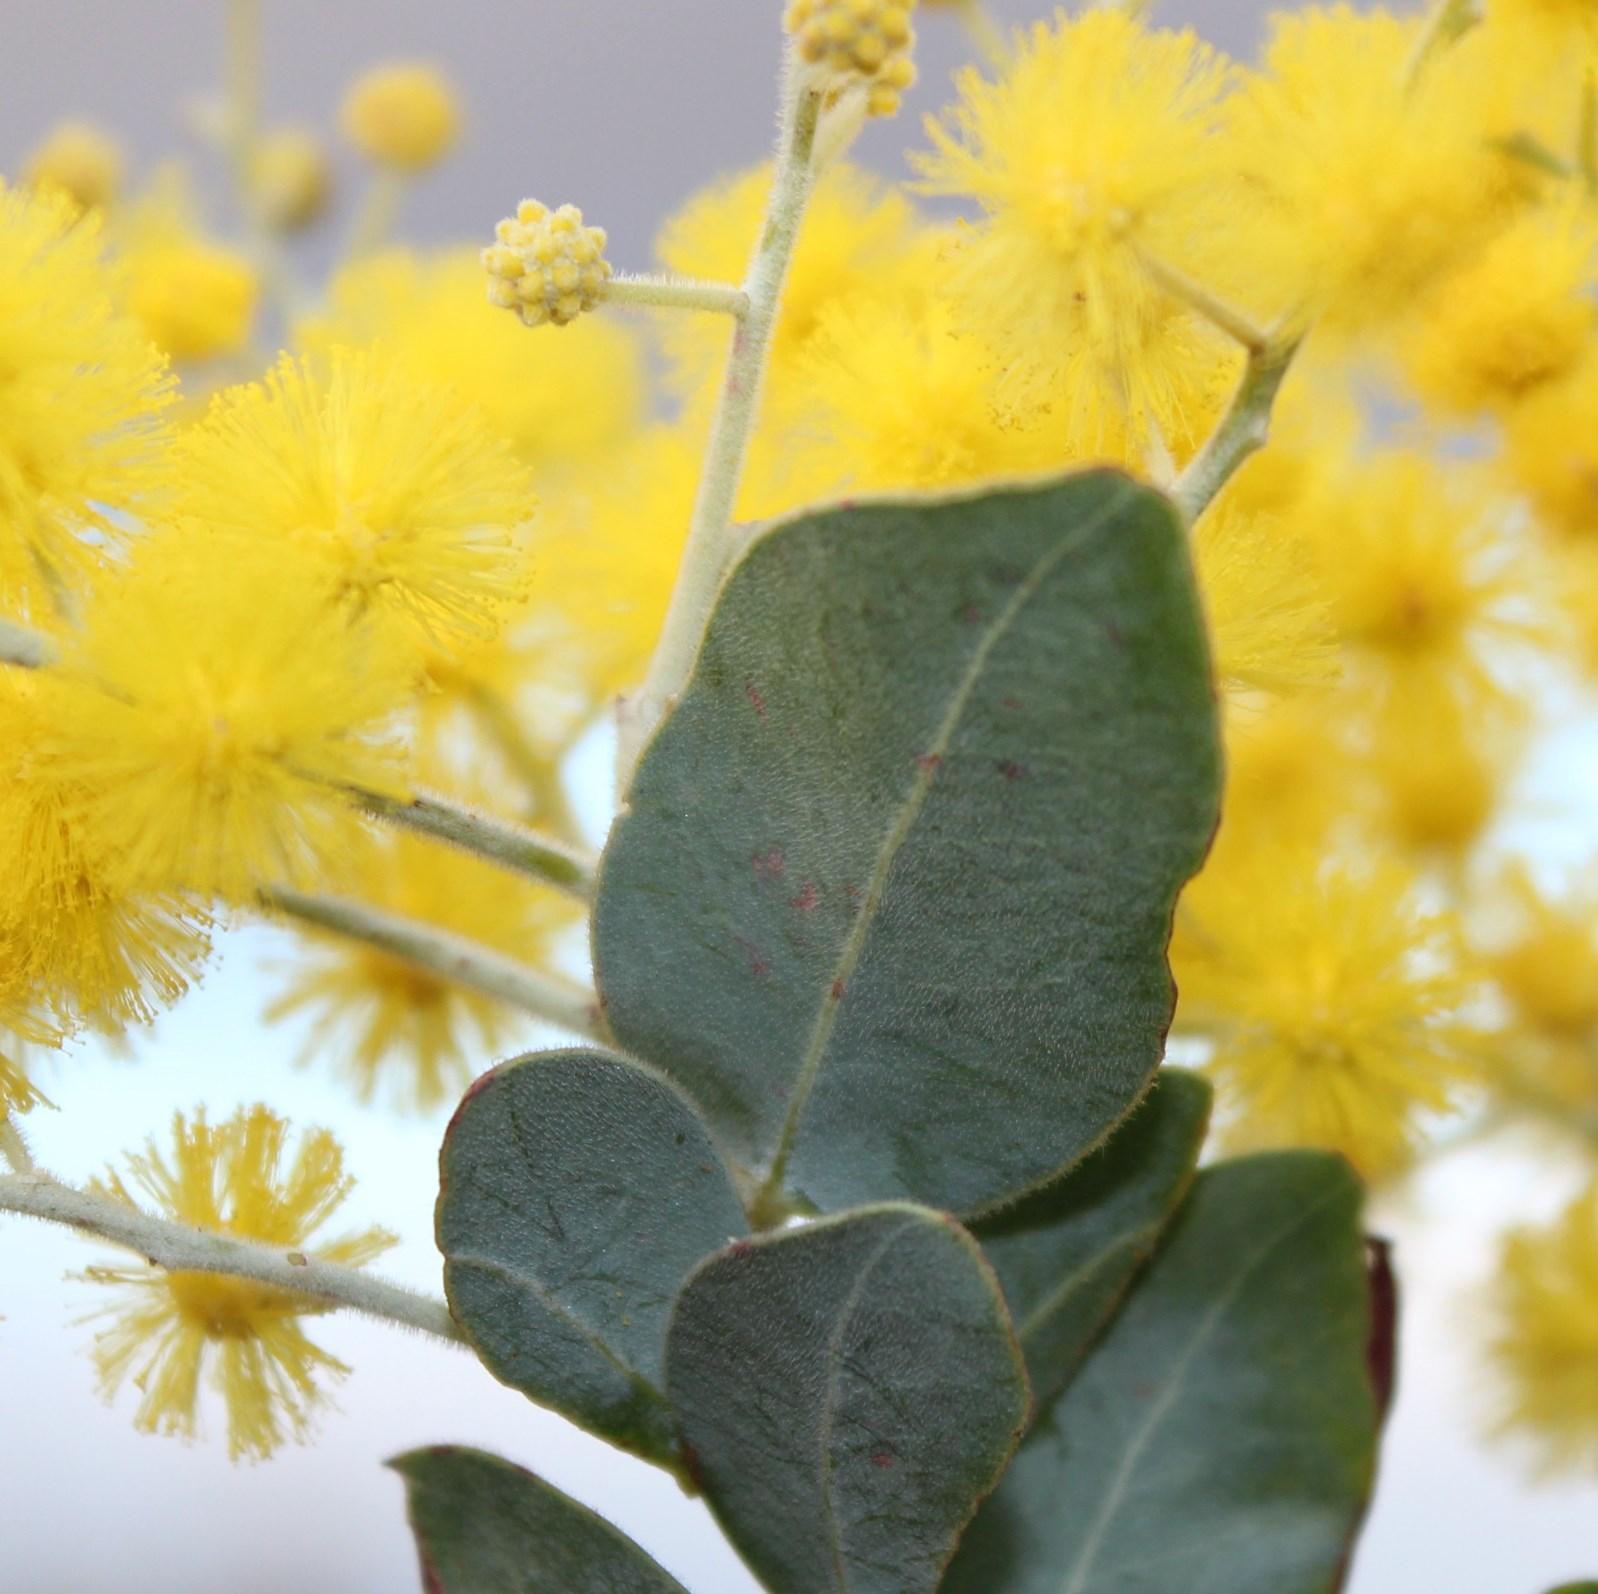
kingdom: Plantae
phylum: Tracheophyta
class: Magnoliopsida
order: Fabales
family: Fabaceae
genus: Acacia
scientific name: Acacia podalyriifolia
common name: Pearl wattle
